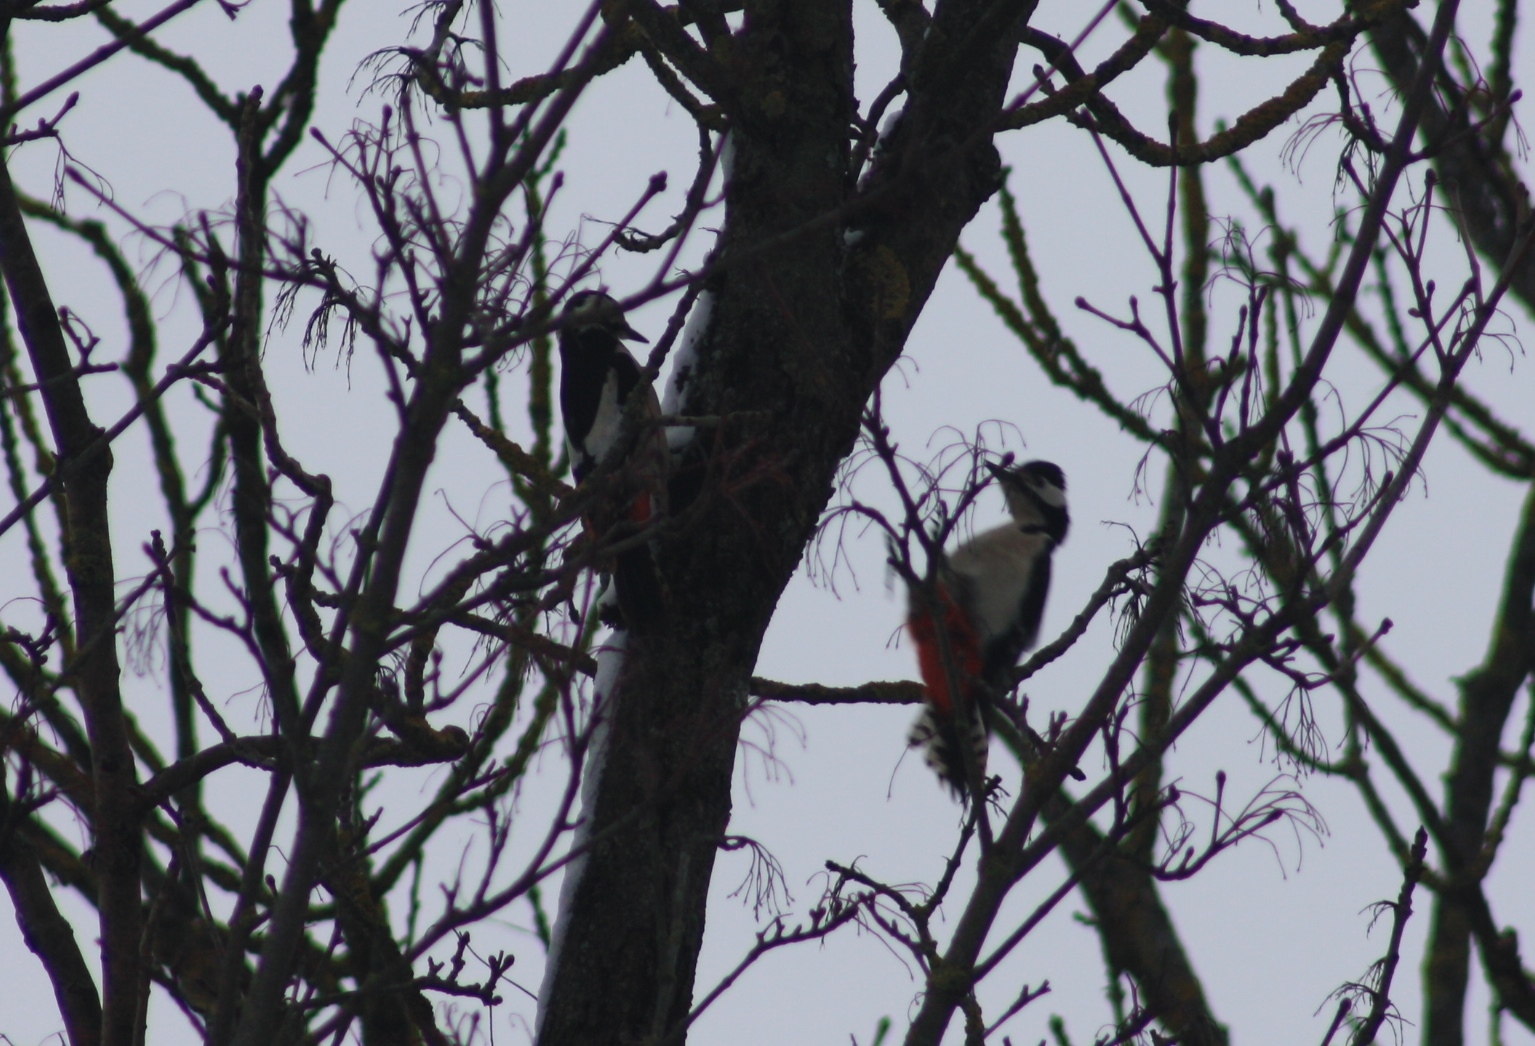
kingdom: Animalia
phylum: Chordata
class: Aves
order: Piciformes
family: Picidae
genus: Dendrocopos
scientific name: Dendrocopos major
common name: Great spotted woodpecker
